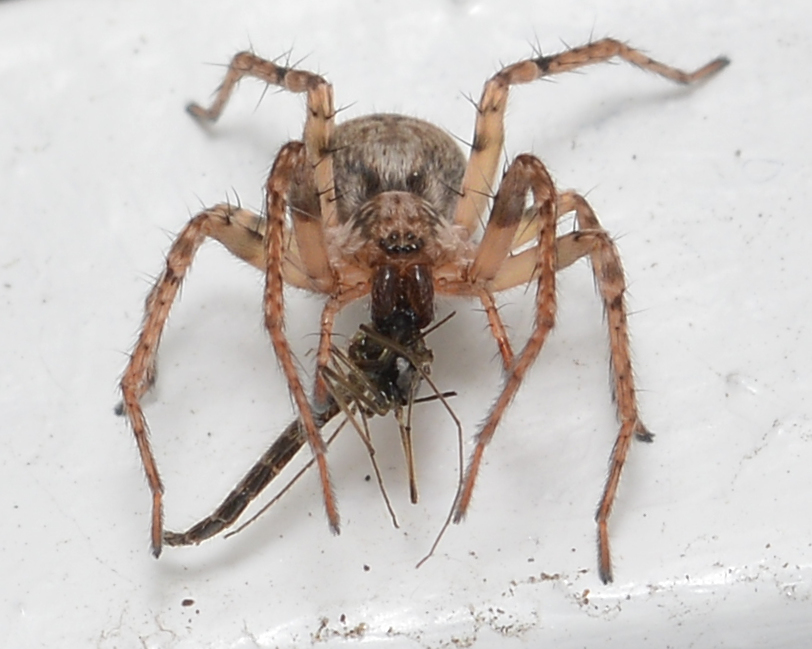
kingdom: Animalia
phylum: Arthropoda
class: Arachnida
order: Araneae
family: Anyphaenidae
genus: Anyphaena
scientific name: Anyphaena accentuata
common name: Buzzing spider
